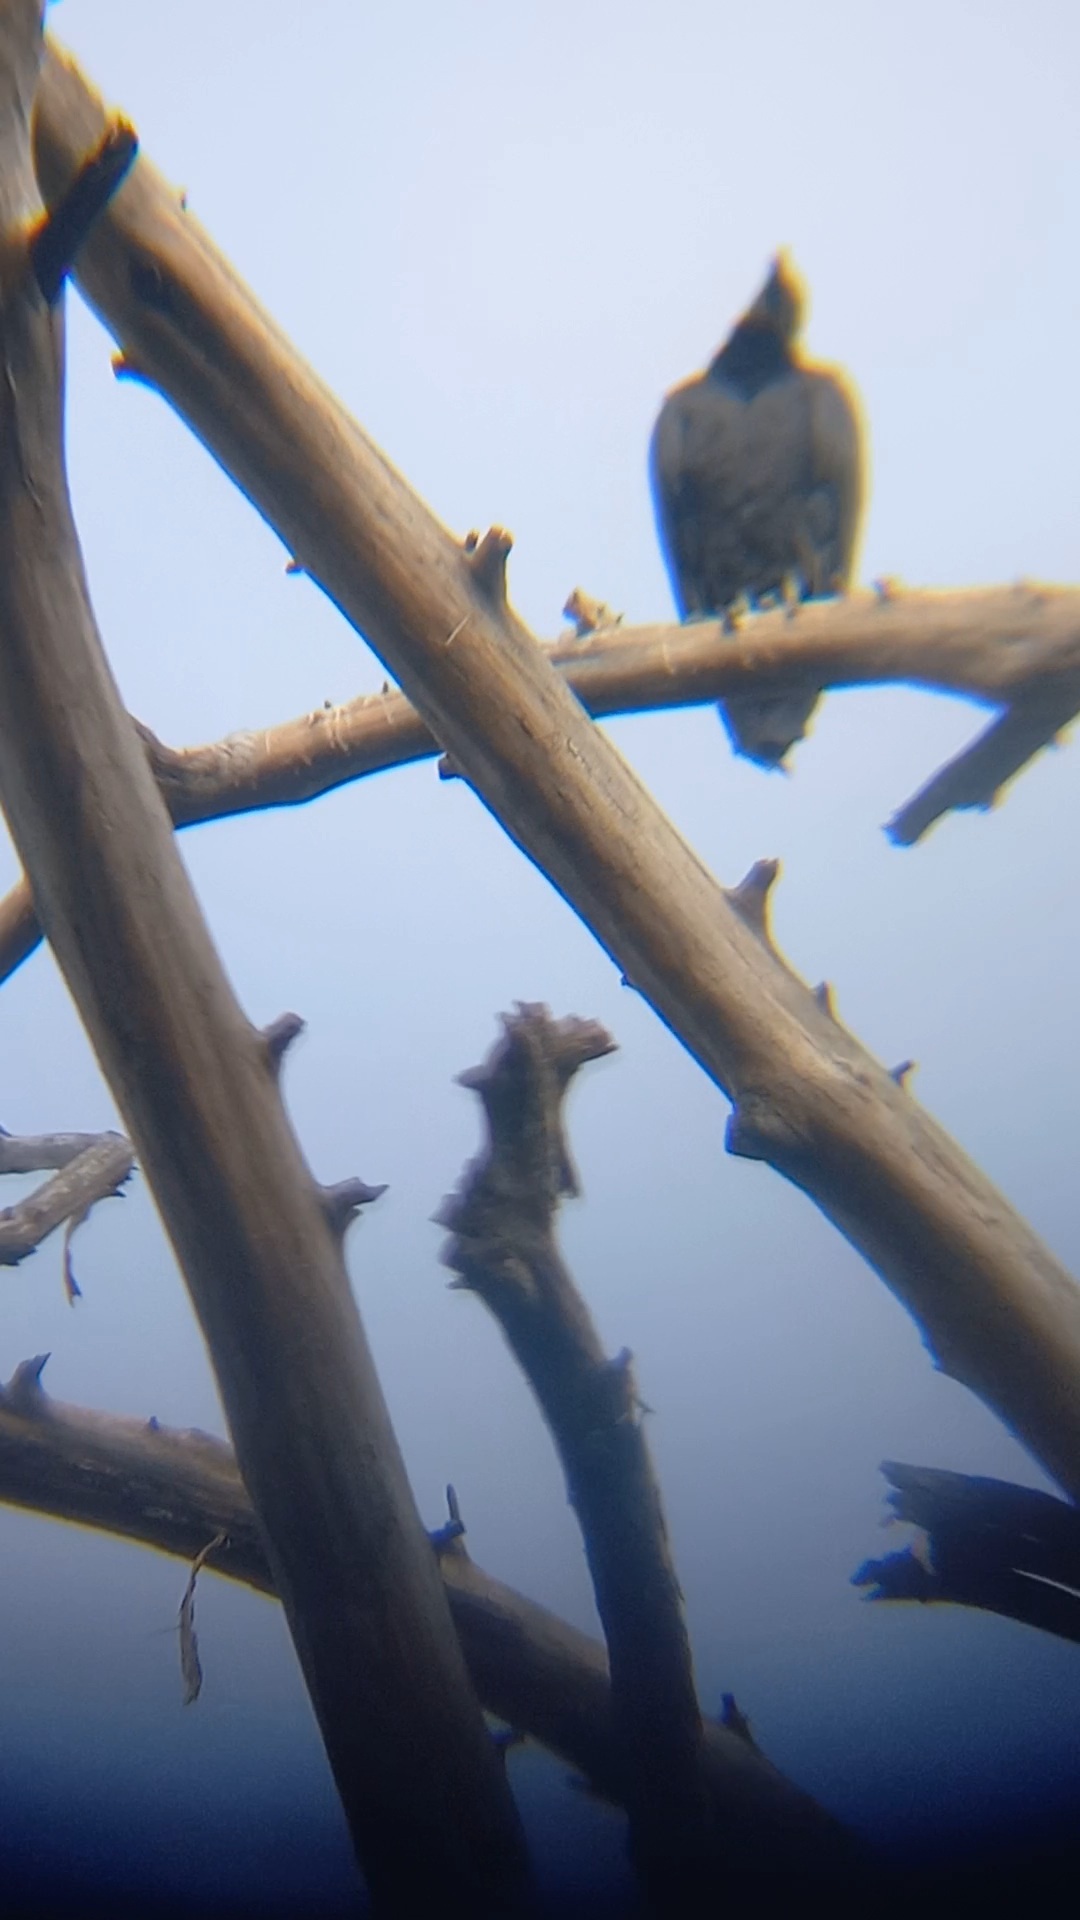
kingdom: Animalia
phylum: Chordata
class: Aves
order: Accipitriformes
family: Cathartidae
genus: Coragyps
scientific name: Coragyps atratus
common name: Black vulture
